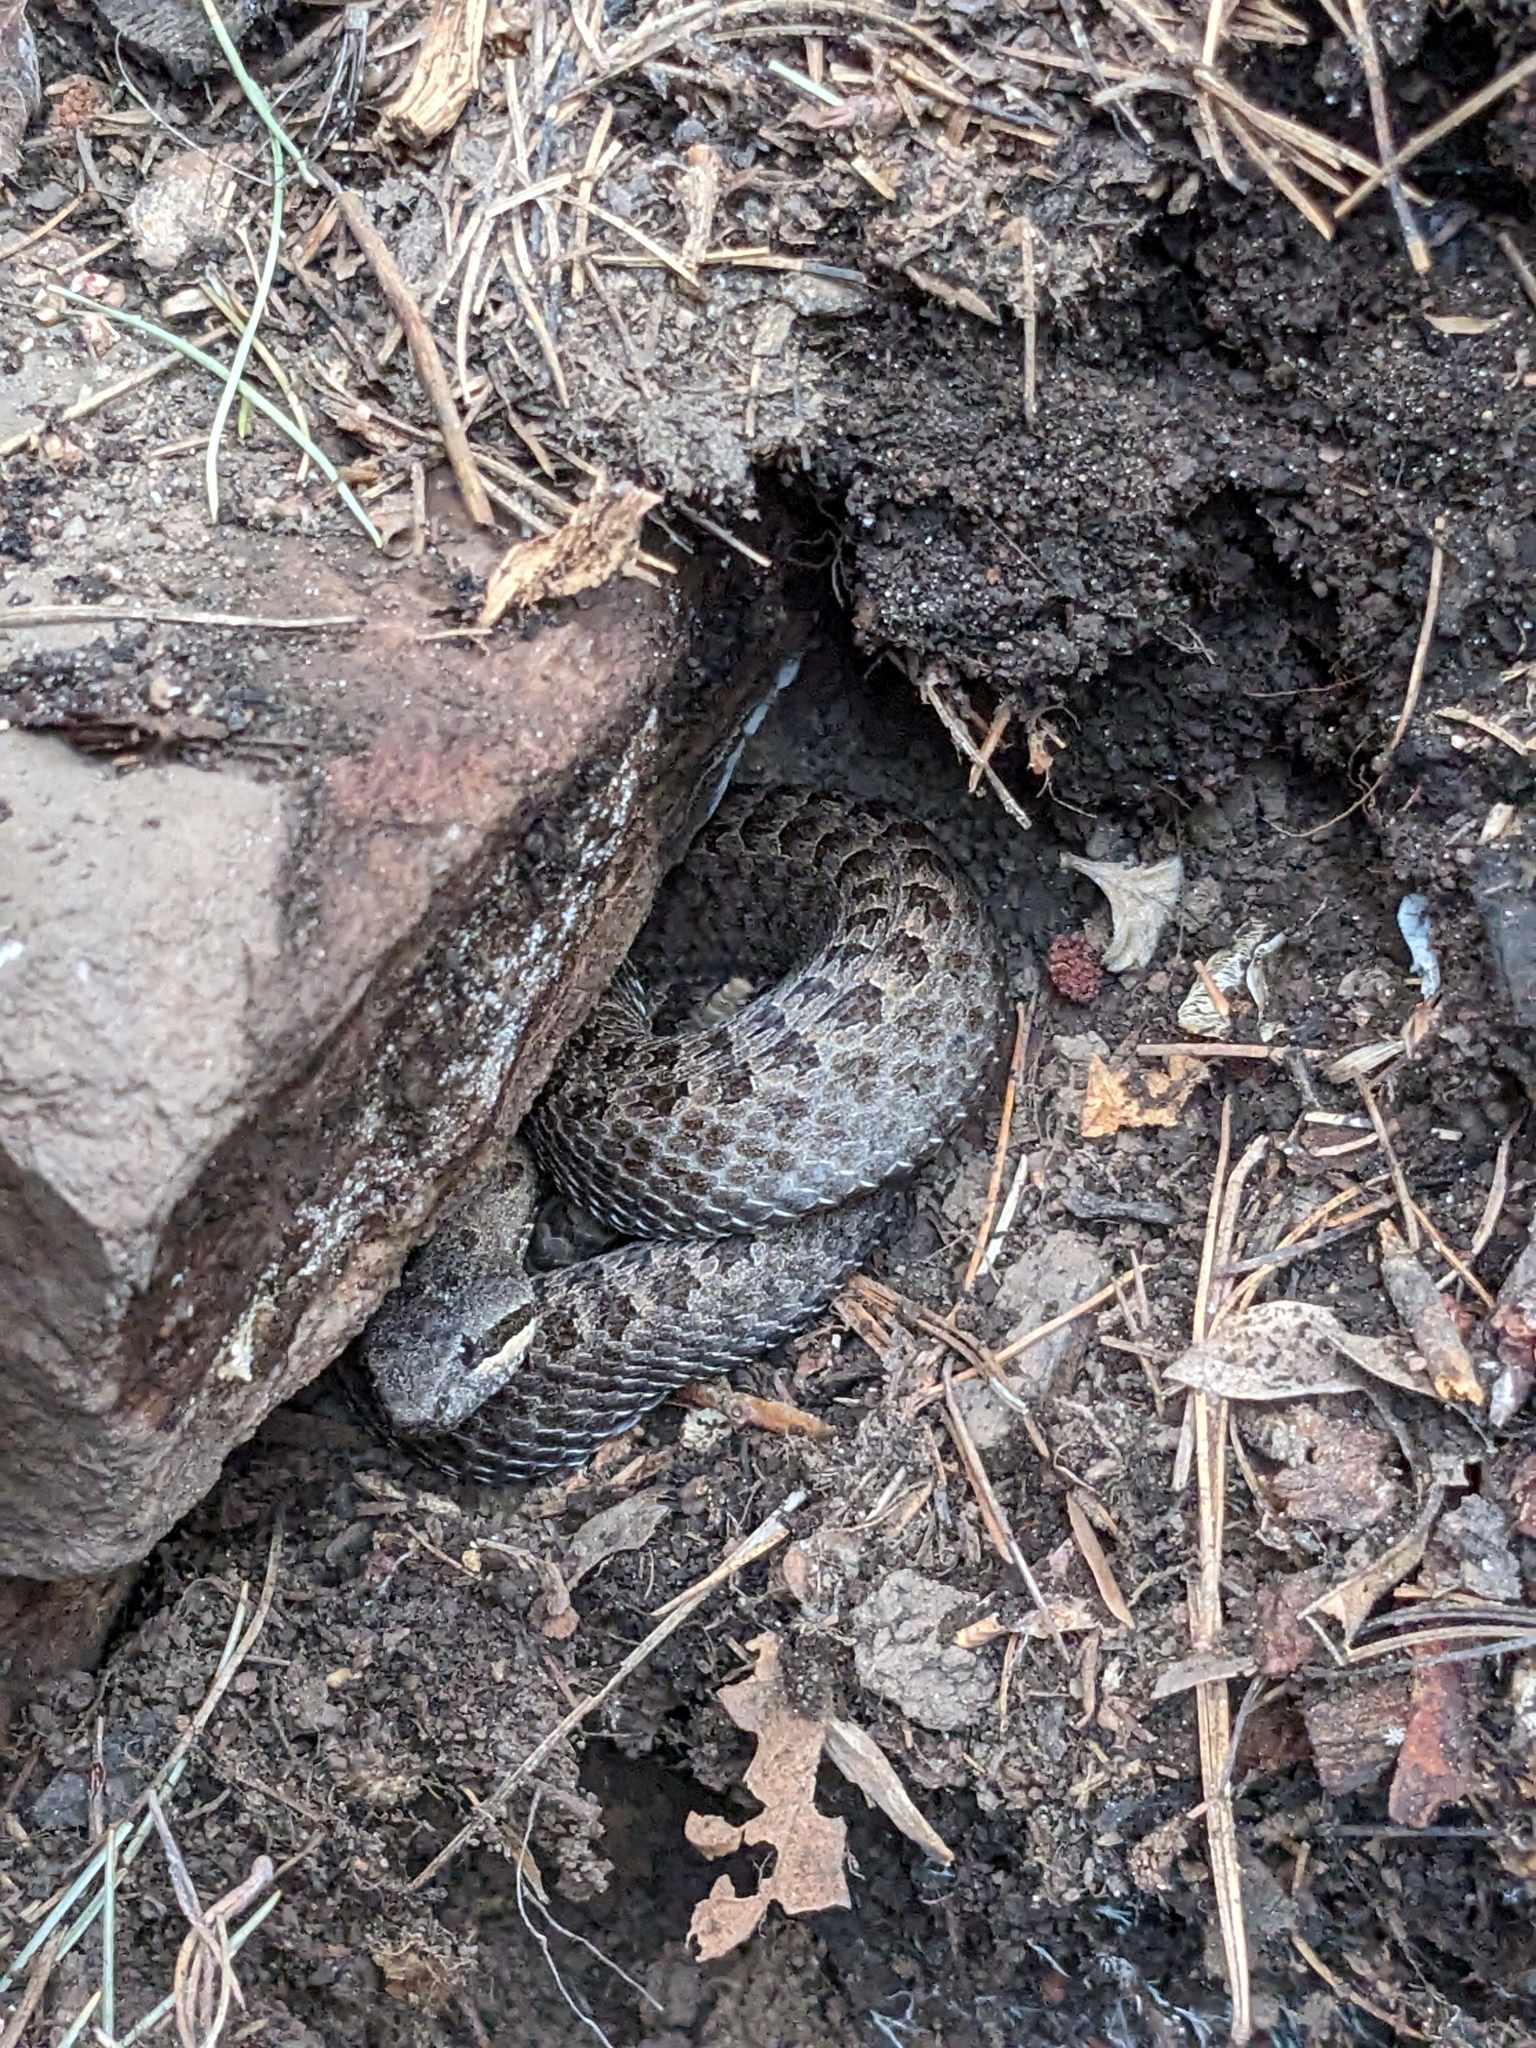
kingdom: Animalia
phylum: Chordata
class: Squamata
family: Viperidae
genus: Crotalus
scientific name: Crotalus pricei
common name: Twin-spotted rattlesnake
